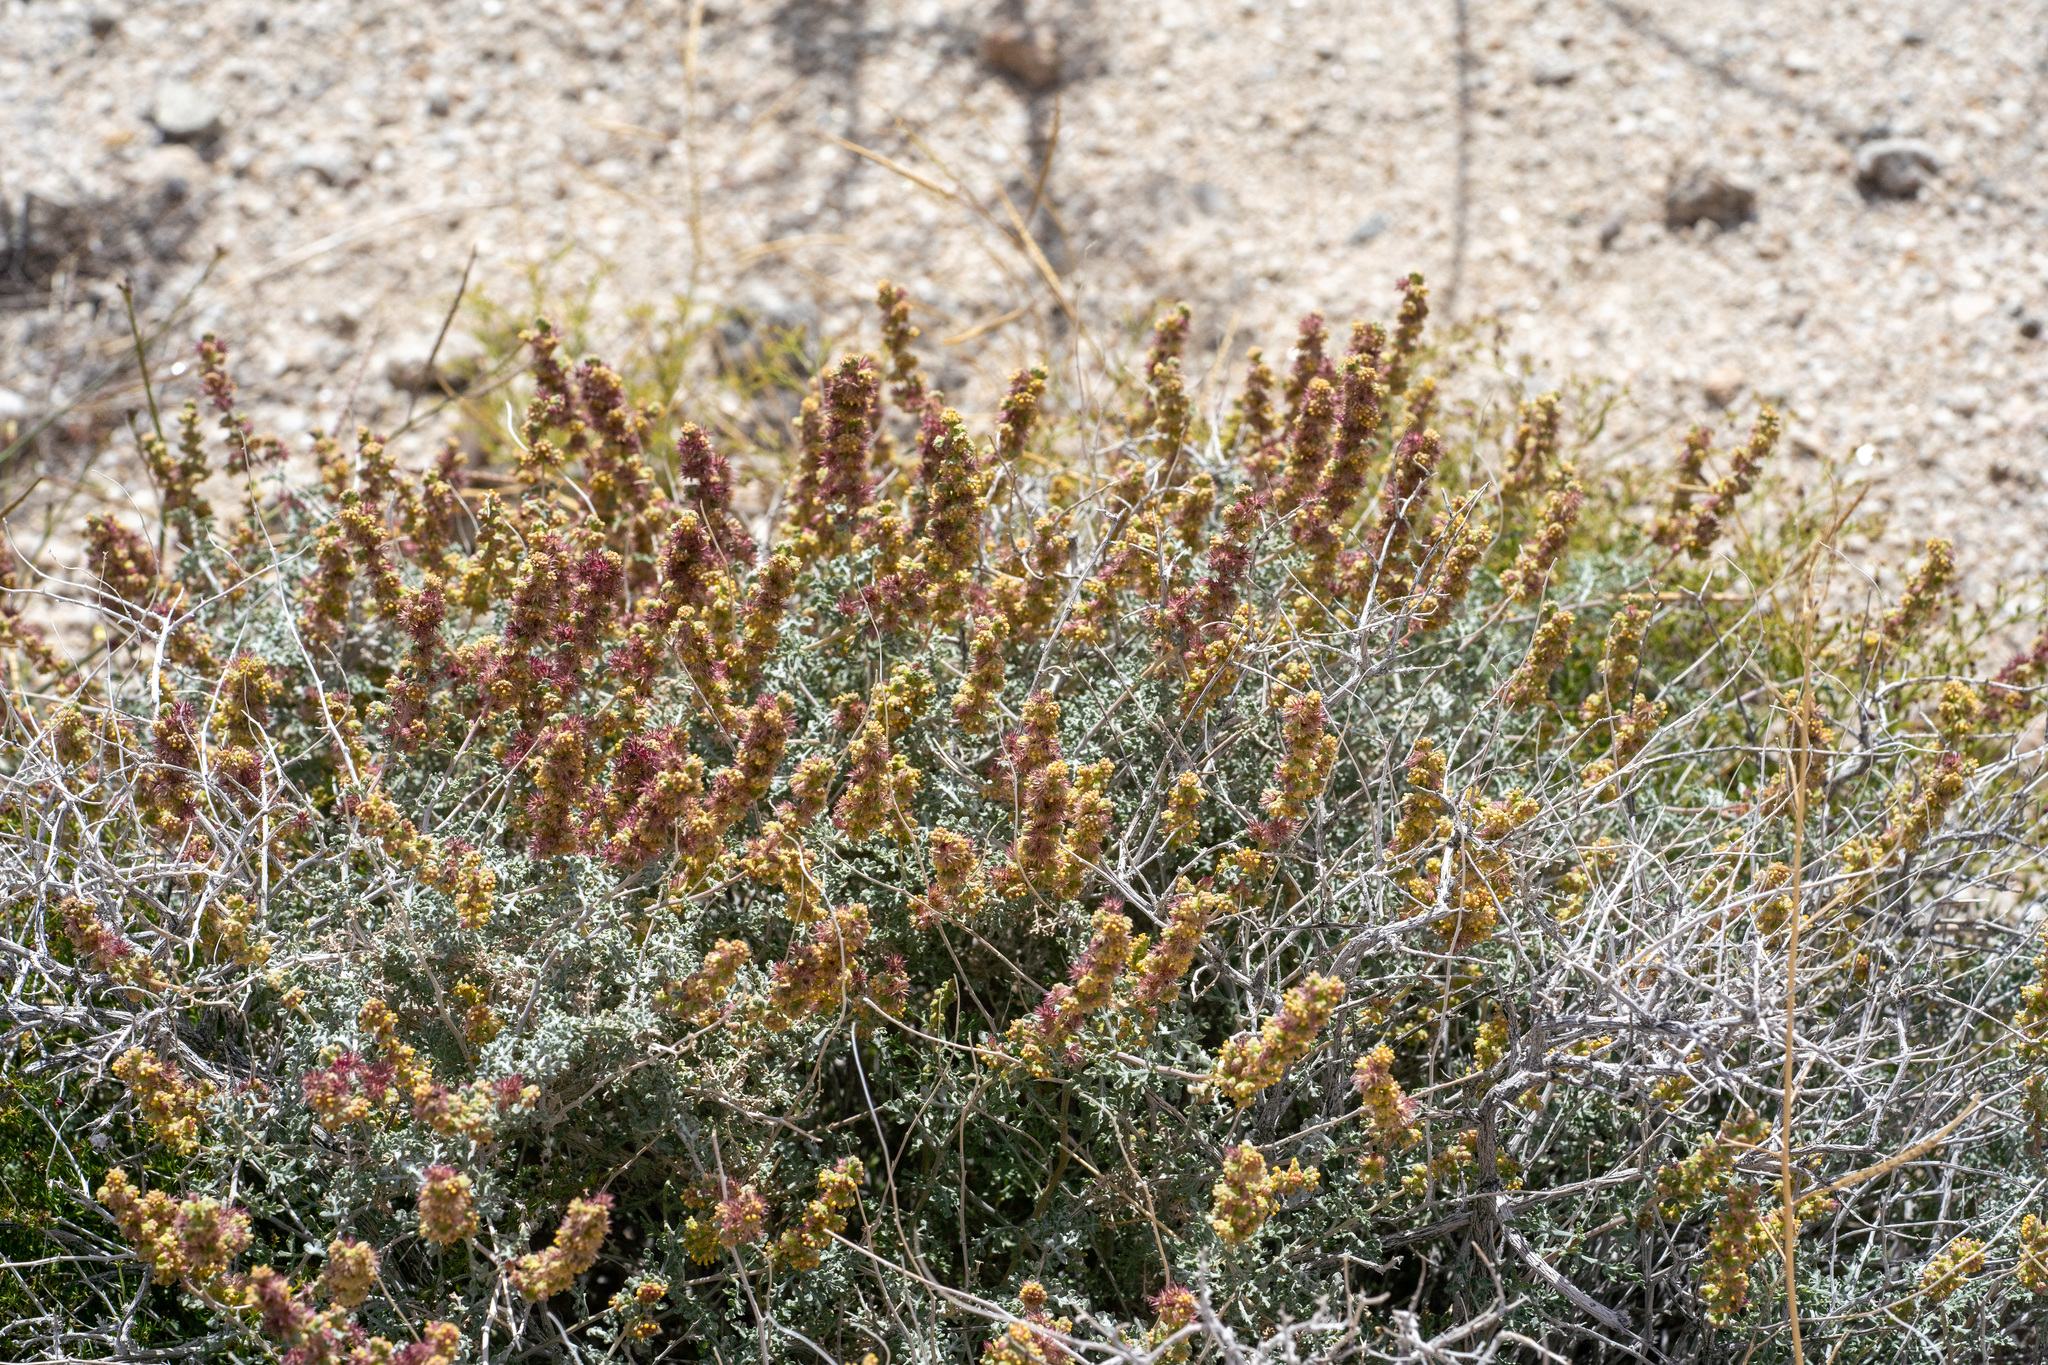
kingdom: Plantae
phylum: Tracheophyta
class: Magnoliopsida
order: Asterales
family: Asteraceae
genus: Ambrosia
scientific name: Ambrosia dumosa
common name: Bur-sage
